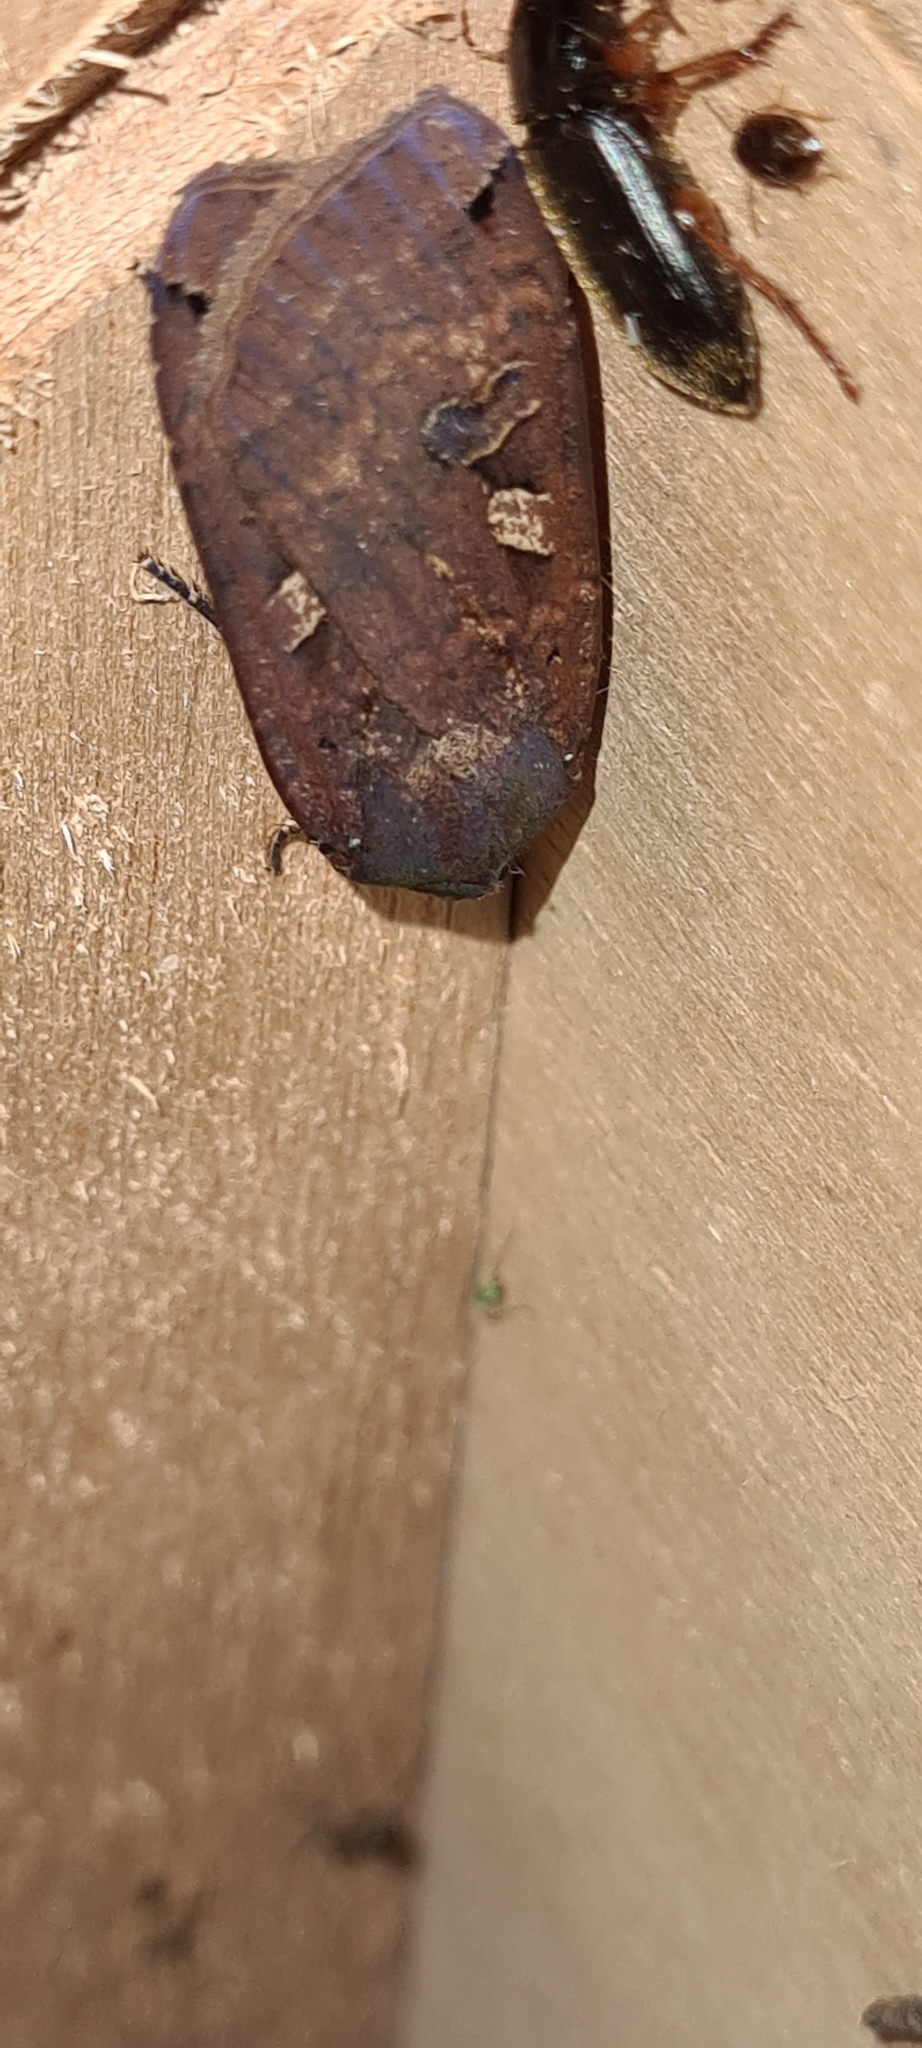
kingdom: Animalia
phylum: Arthropoda
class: Insecta
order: Lepidoptera
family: Noctuidae
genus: Noctua
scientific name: Noctua pronuba
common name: Large yellow underwing
